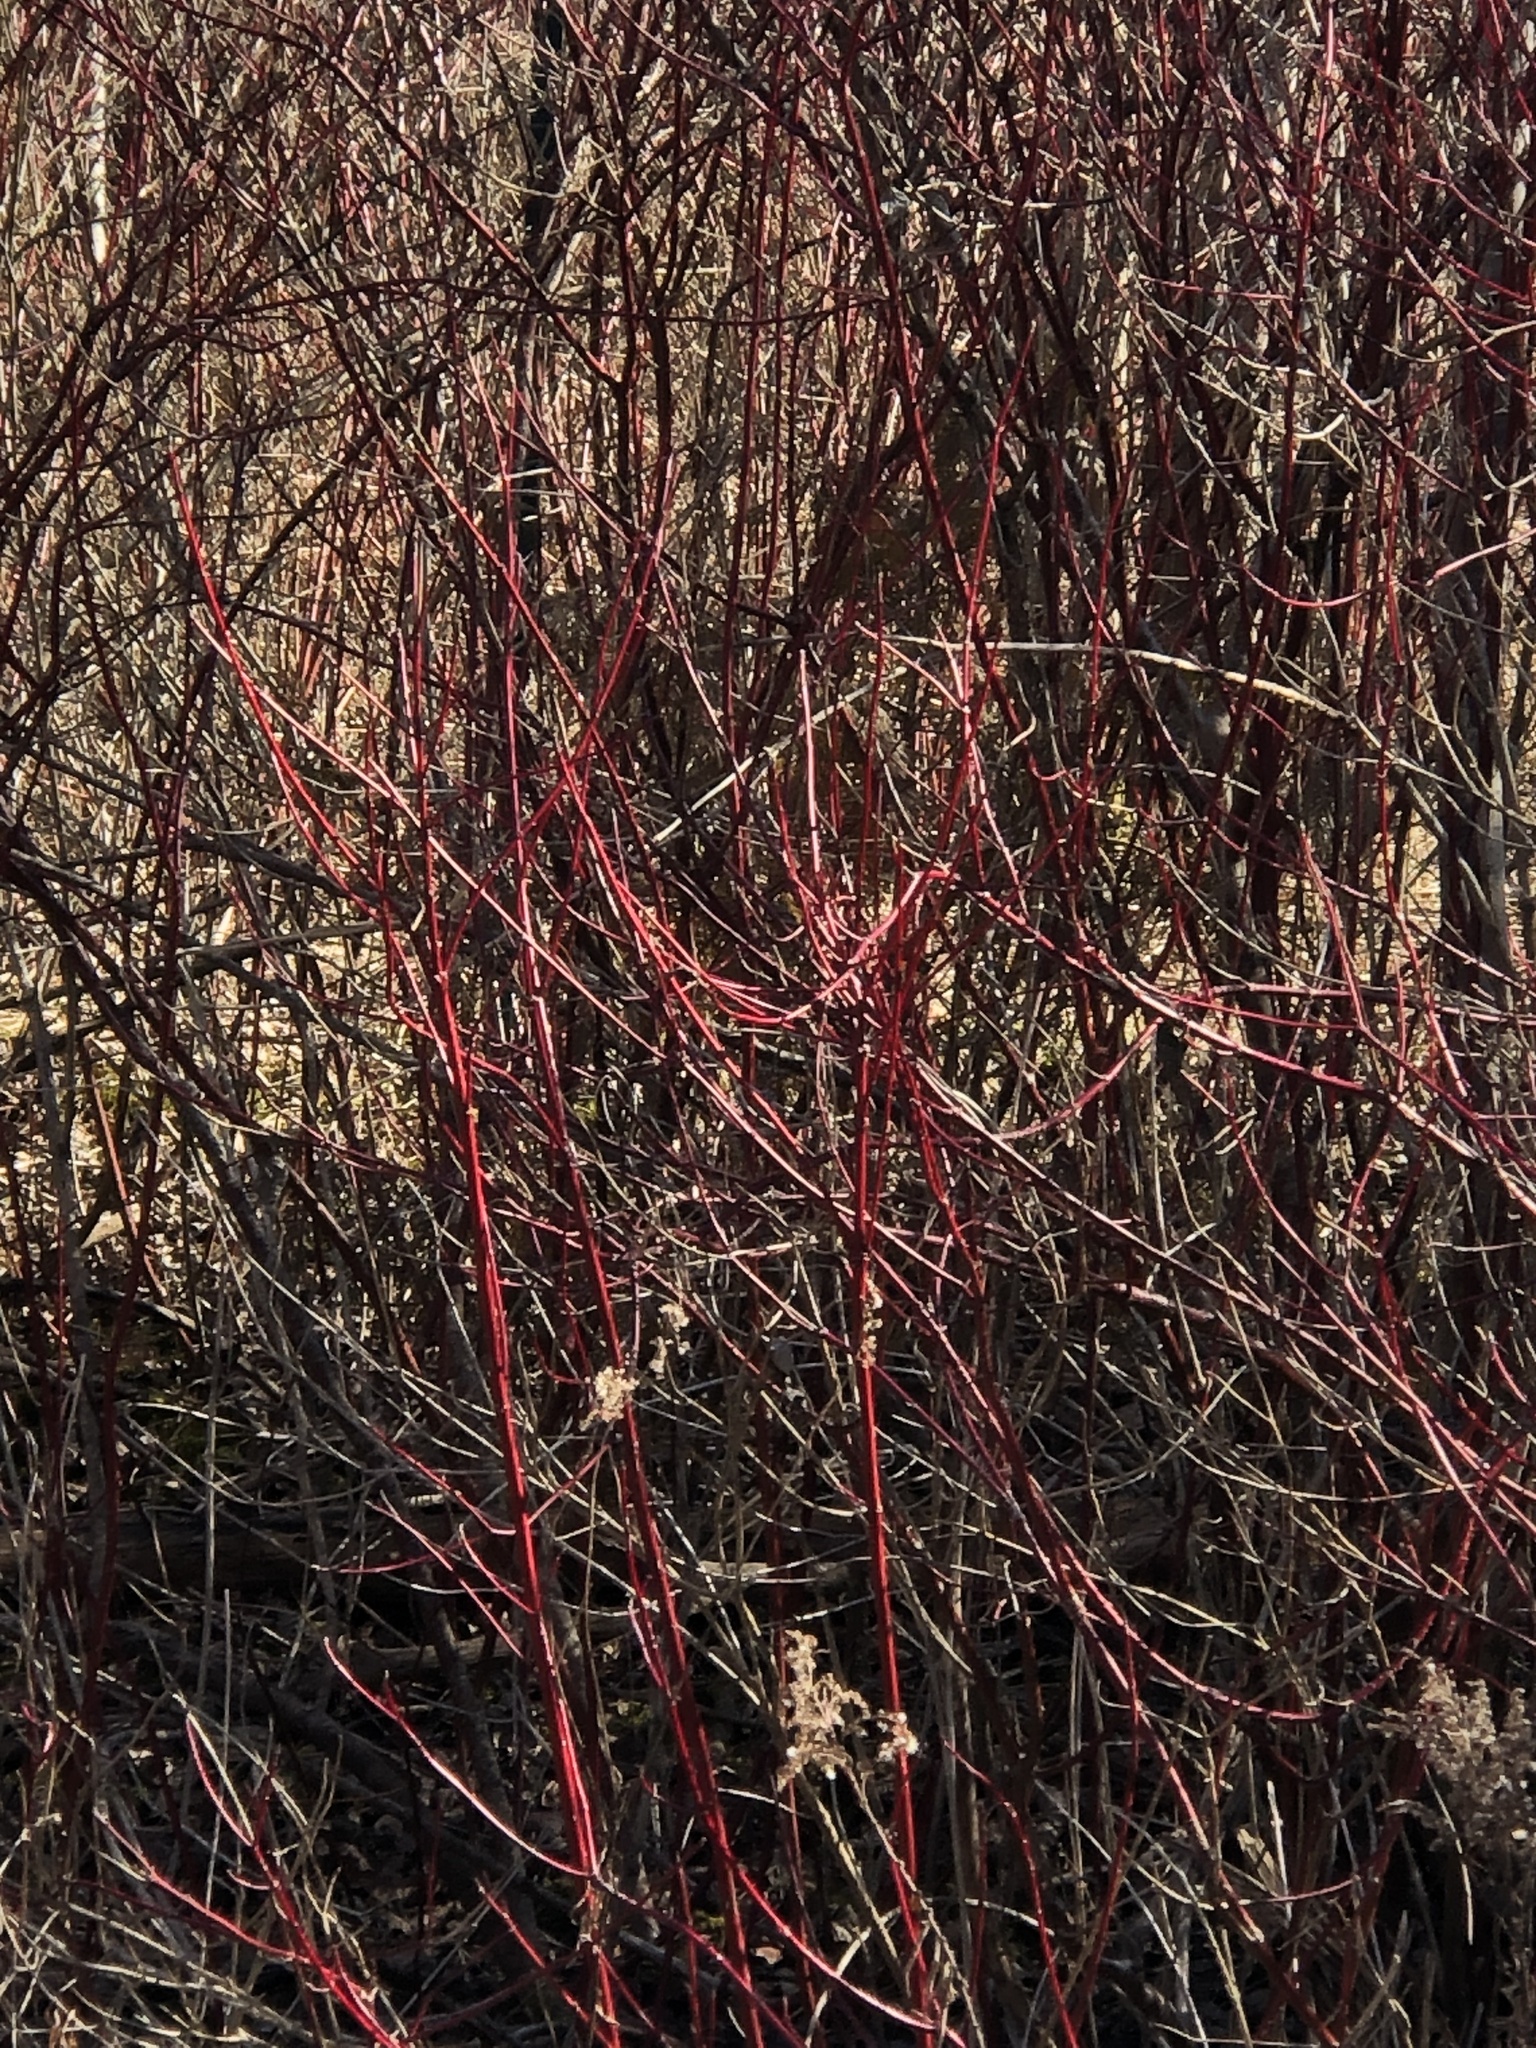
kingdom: Plantae
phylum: Tracheophyta
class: Magnoliopsida
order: Cornales
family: Cornaceae
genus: Cornus
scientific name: Cornus sericea
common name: Red-osier dogwood
